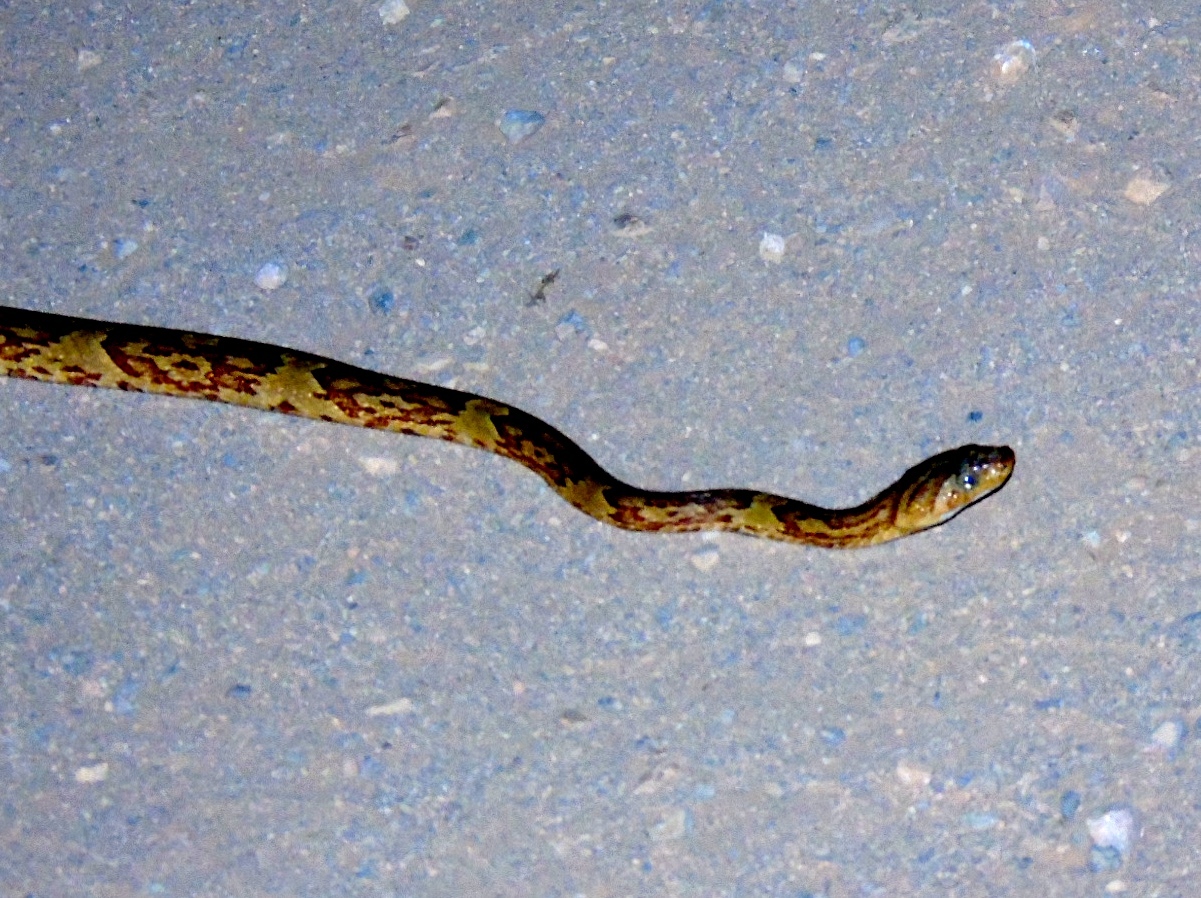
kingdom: Animalia
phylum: Chordata
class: Squamata
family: Colubridae
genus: Trimorphodon
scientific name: Trimorphodon paucimaculatus
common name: Sinaloan lyresnake
